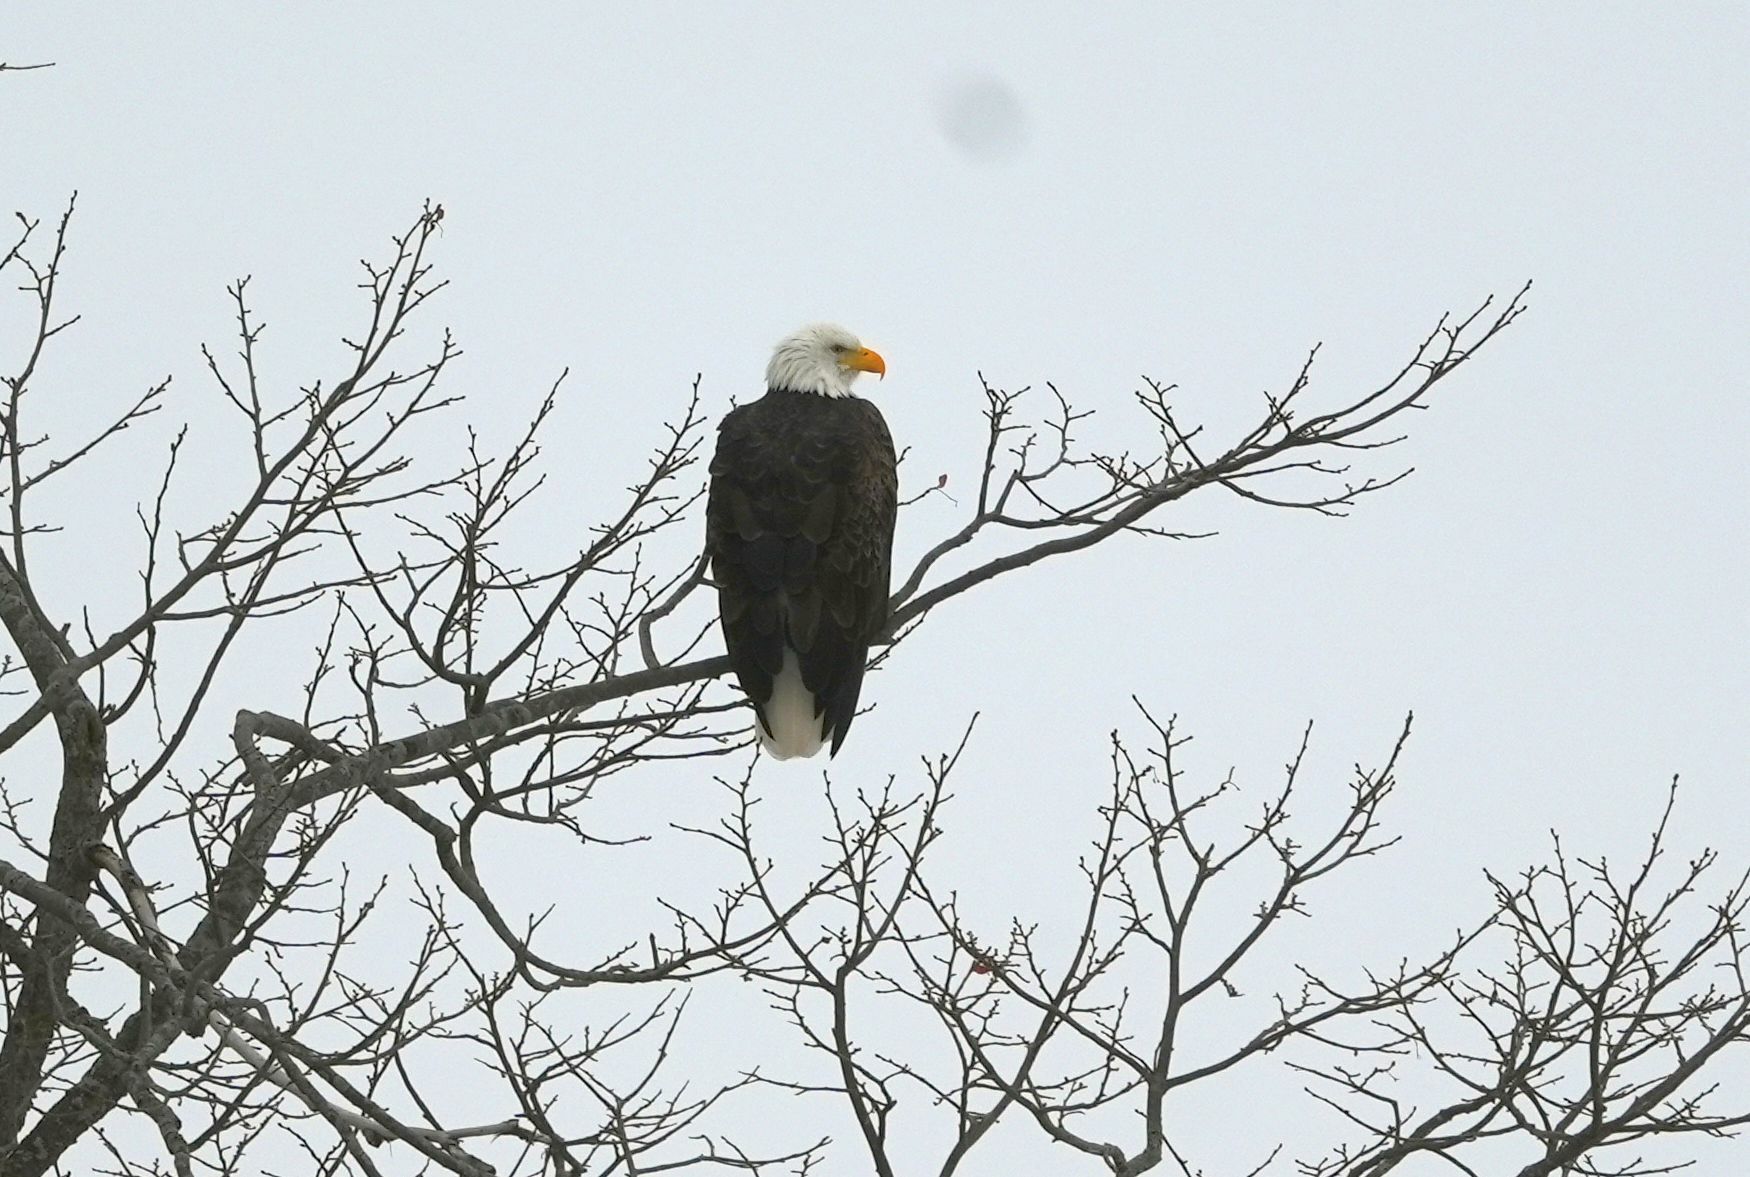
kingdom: Animalia
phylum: Chordata
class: Aves
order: Accipitriformes
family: Accipitridae
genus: Haliaeetus
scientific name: Haliaeetus leucocephalus
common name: Bald eagle
